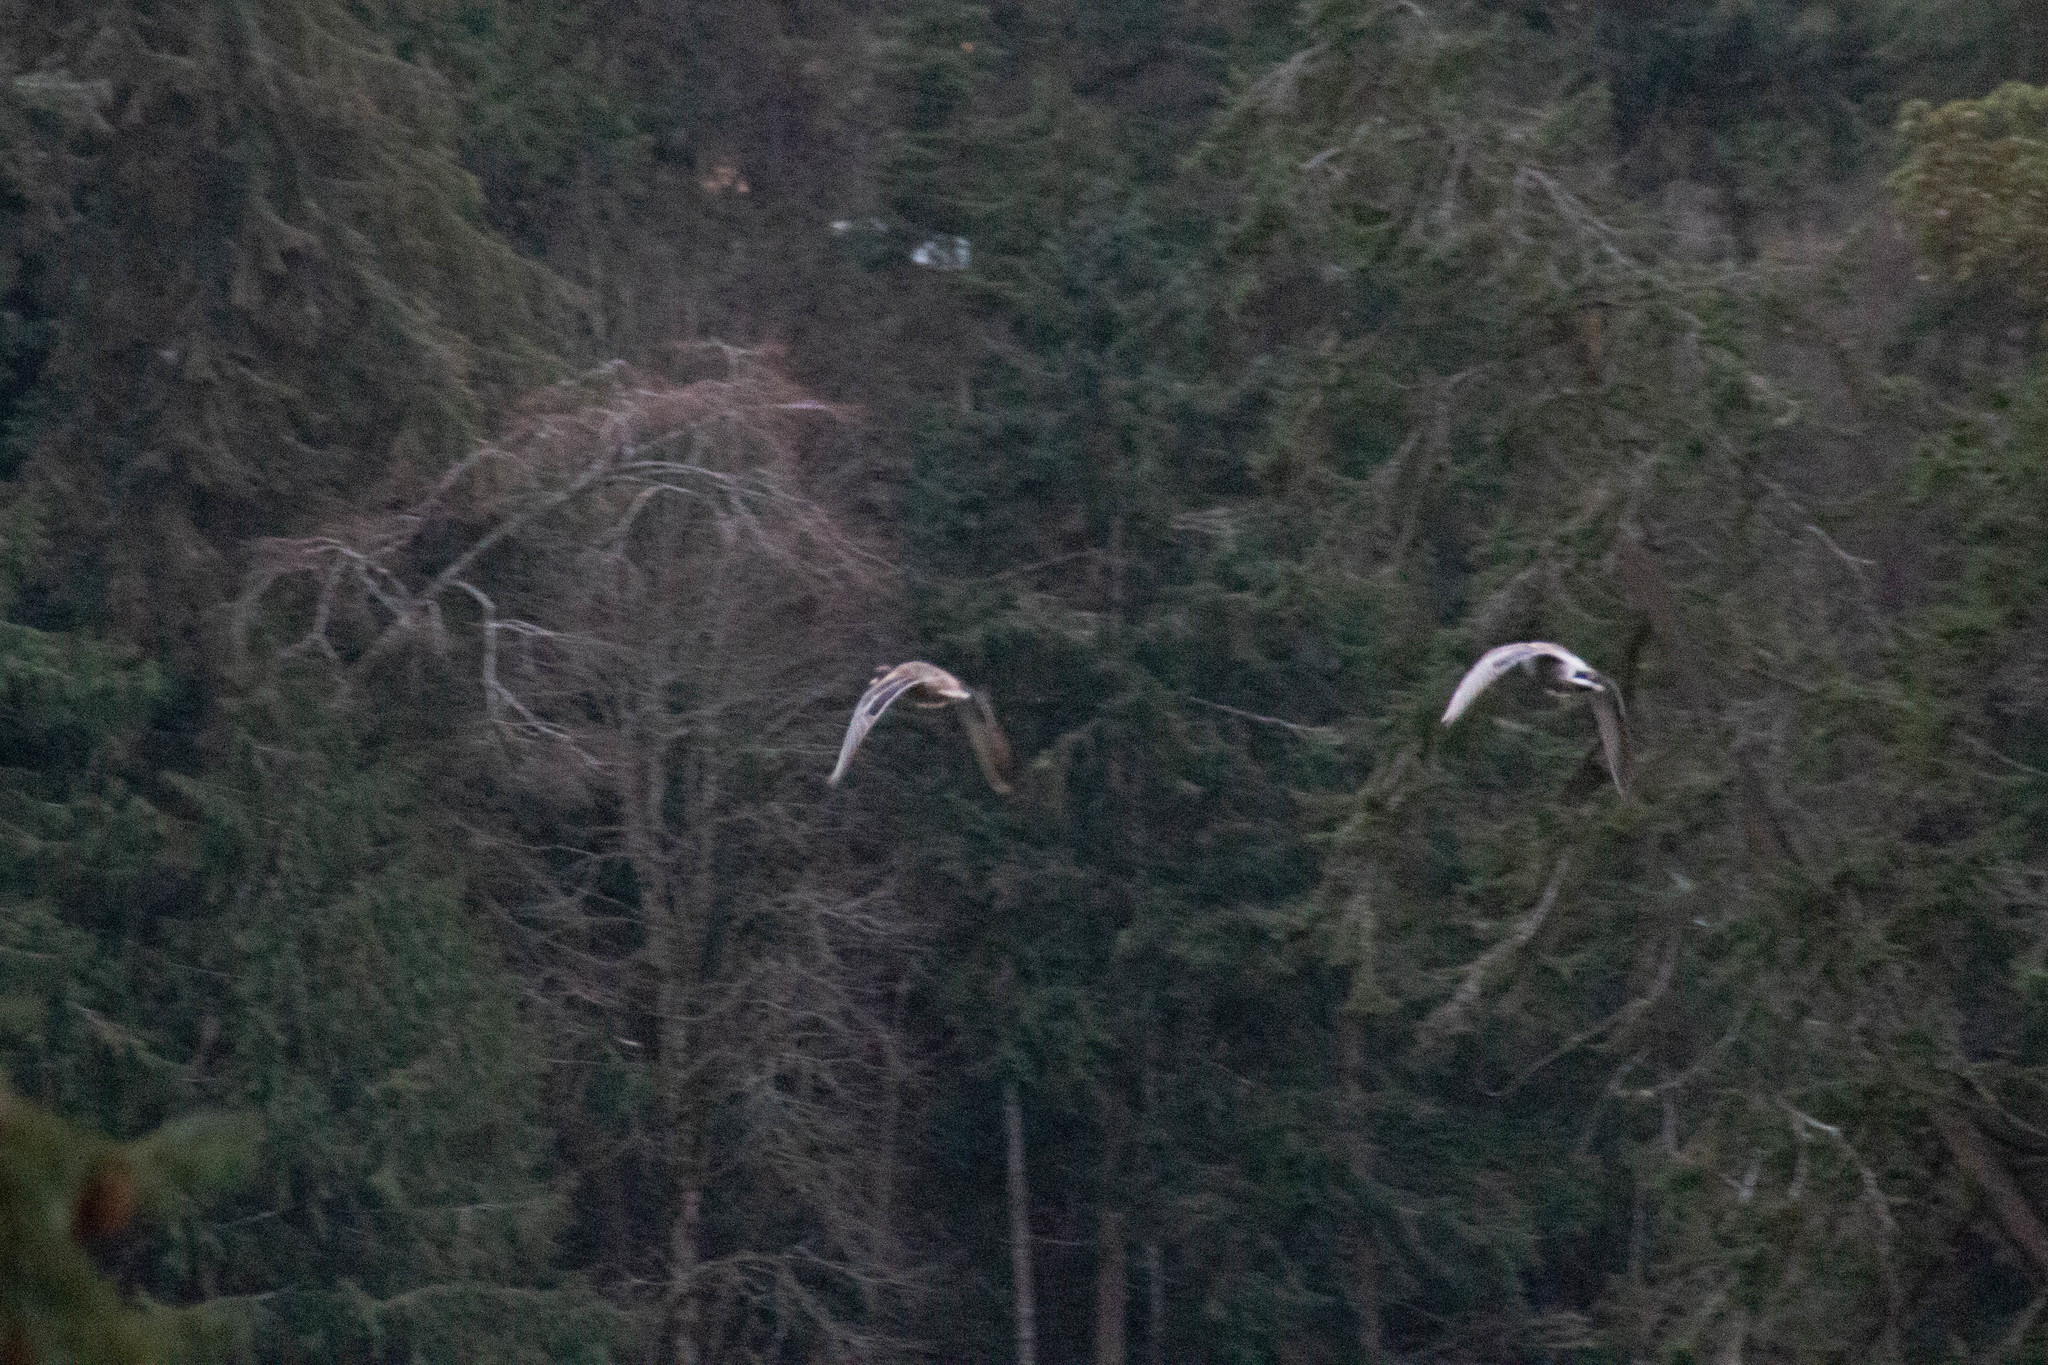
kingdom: Animalia
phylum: Chordata
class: Aves
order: Anseriformes
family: Anatidae
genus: Anas
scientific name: Anas platyrhynchos
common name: Mallard
